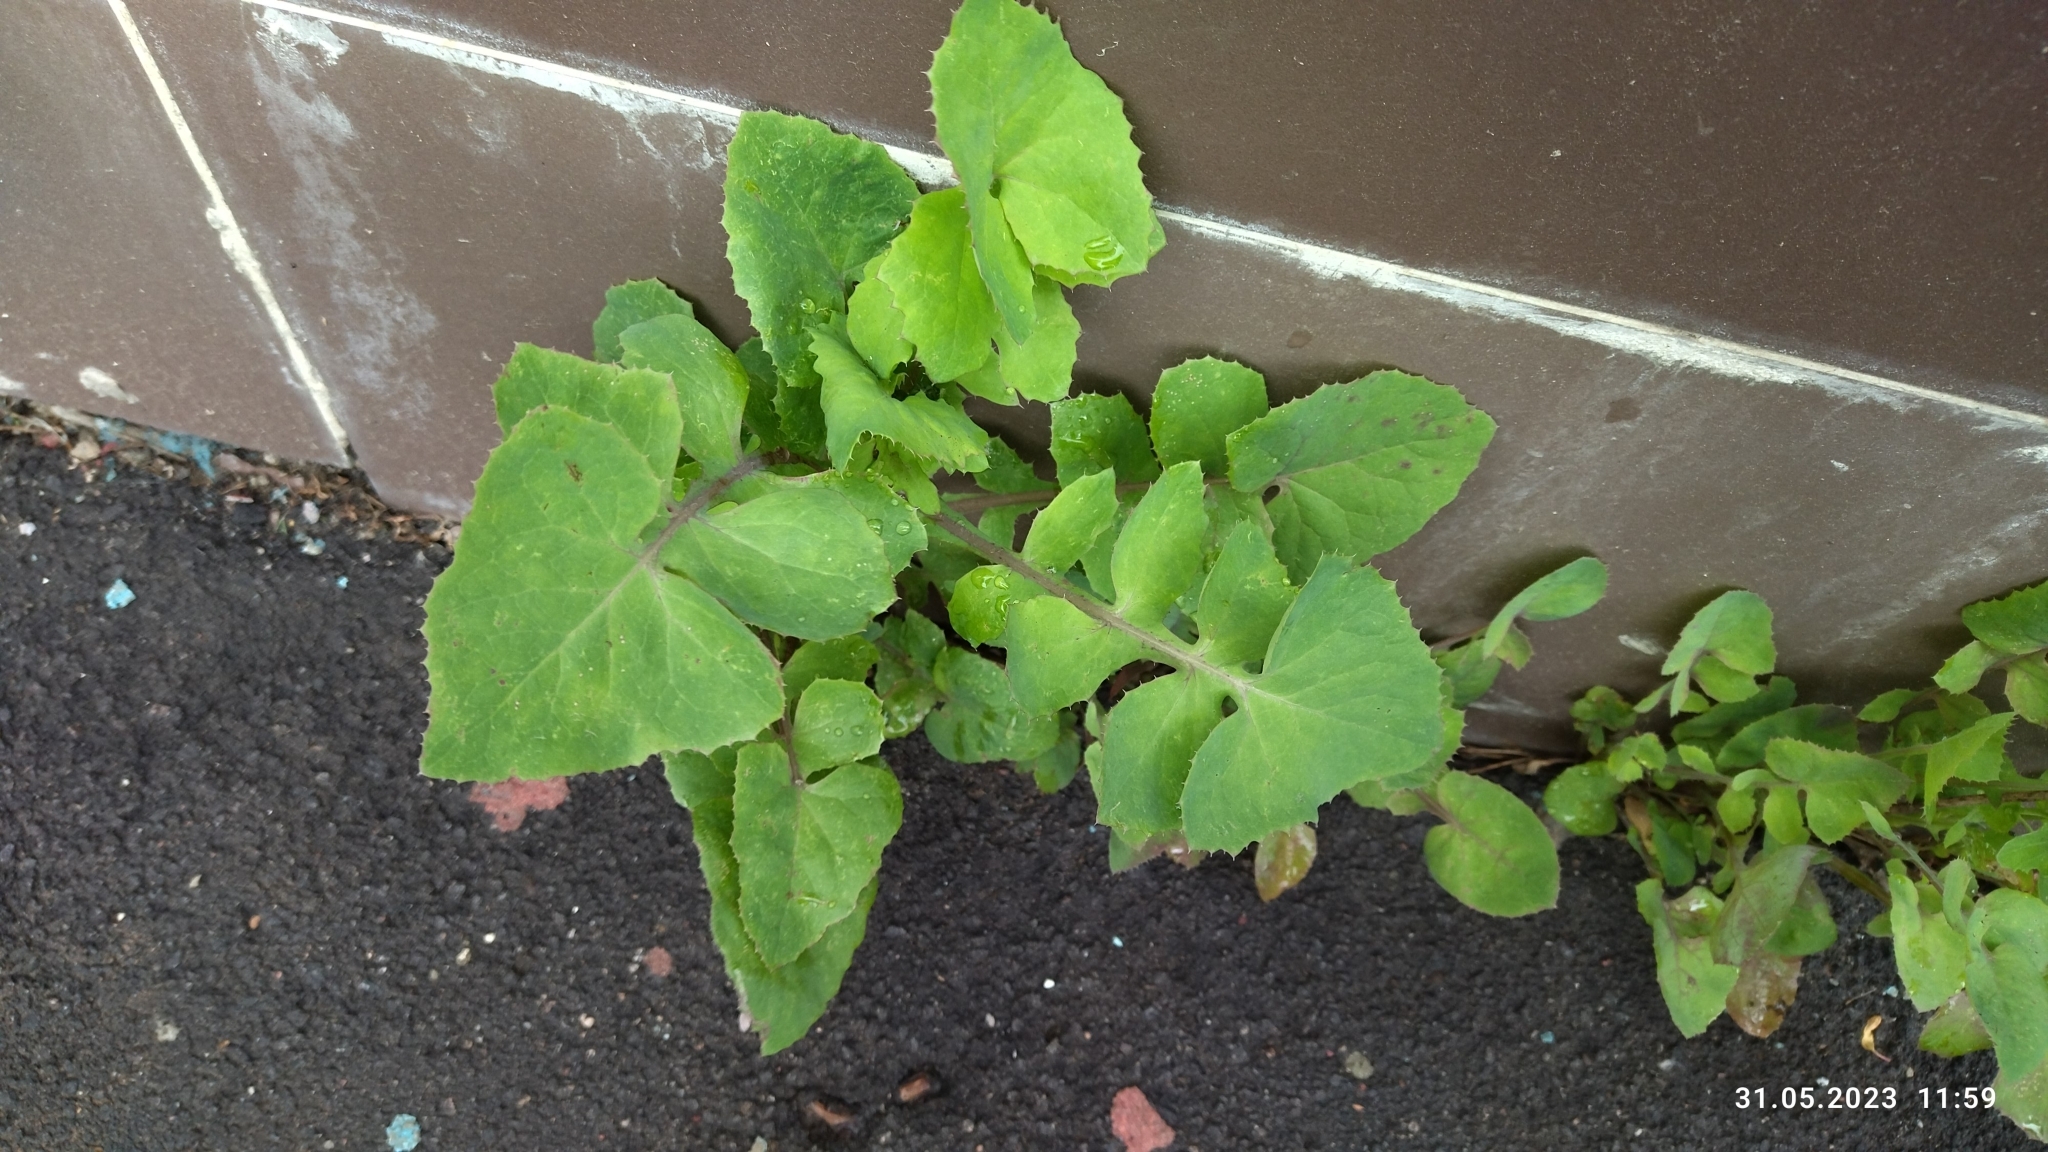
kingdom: Plantae
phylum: Tracheophyta
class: Magnoliopsida
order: Asterales
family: Asteraceae
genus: Sonchus
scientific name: Sonchus oleraceus
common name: Common sowthistle
